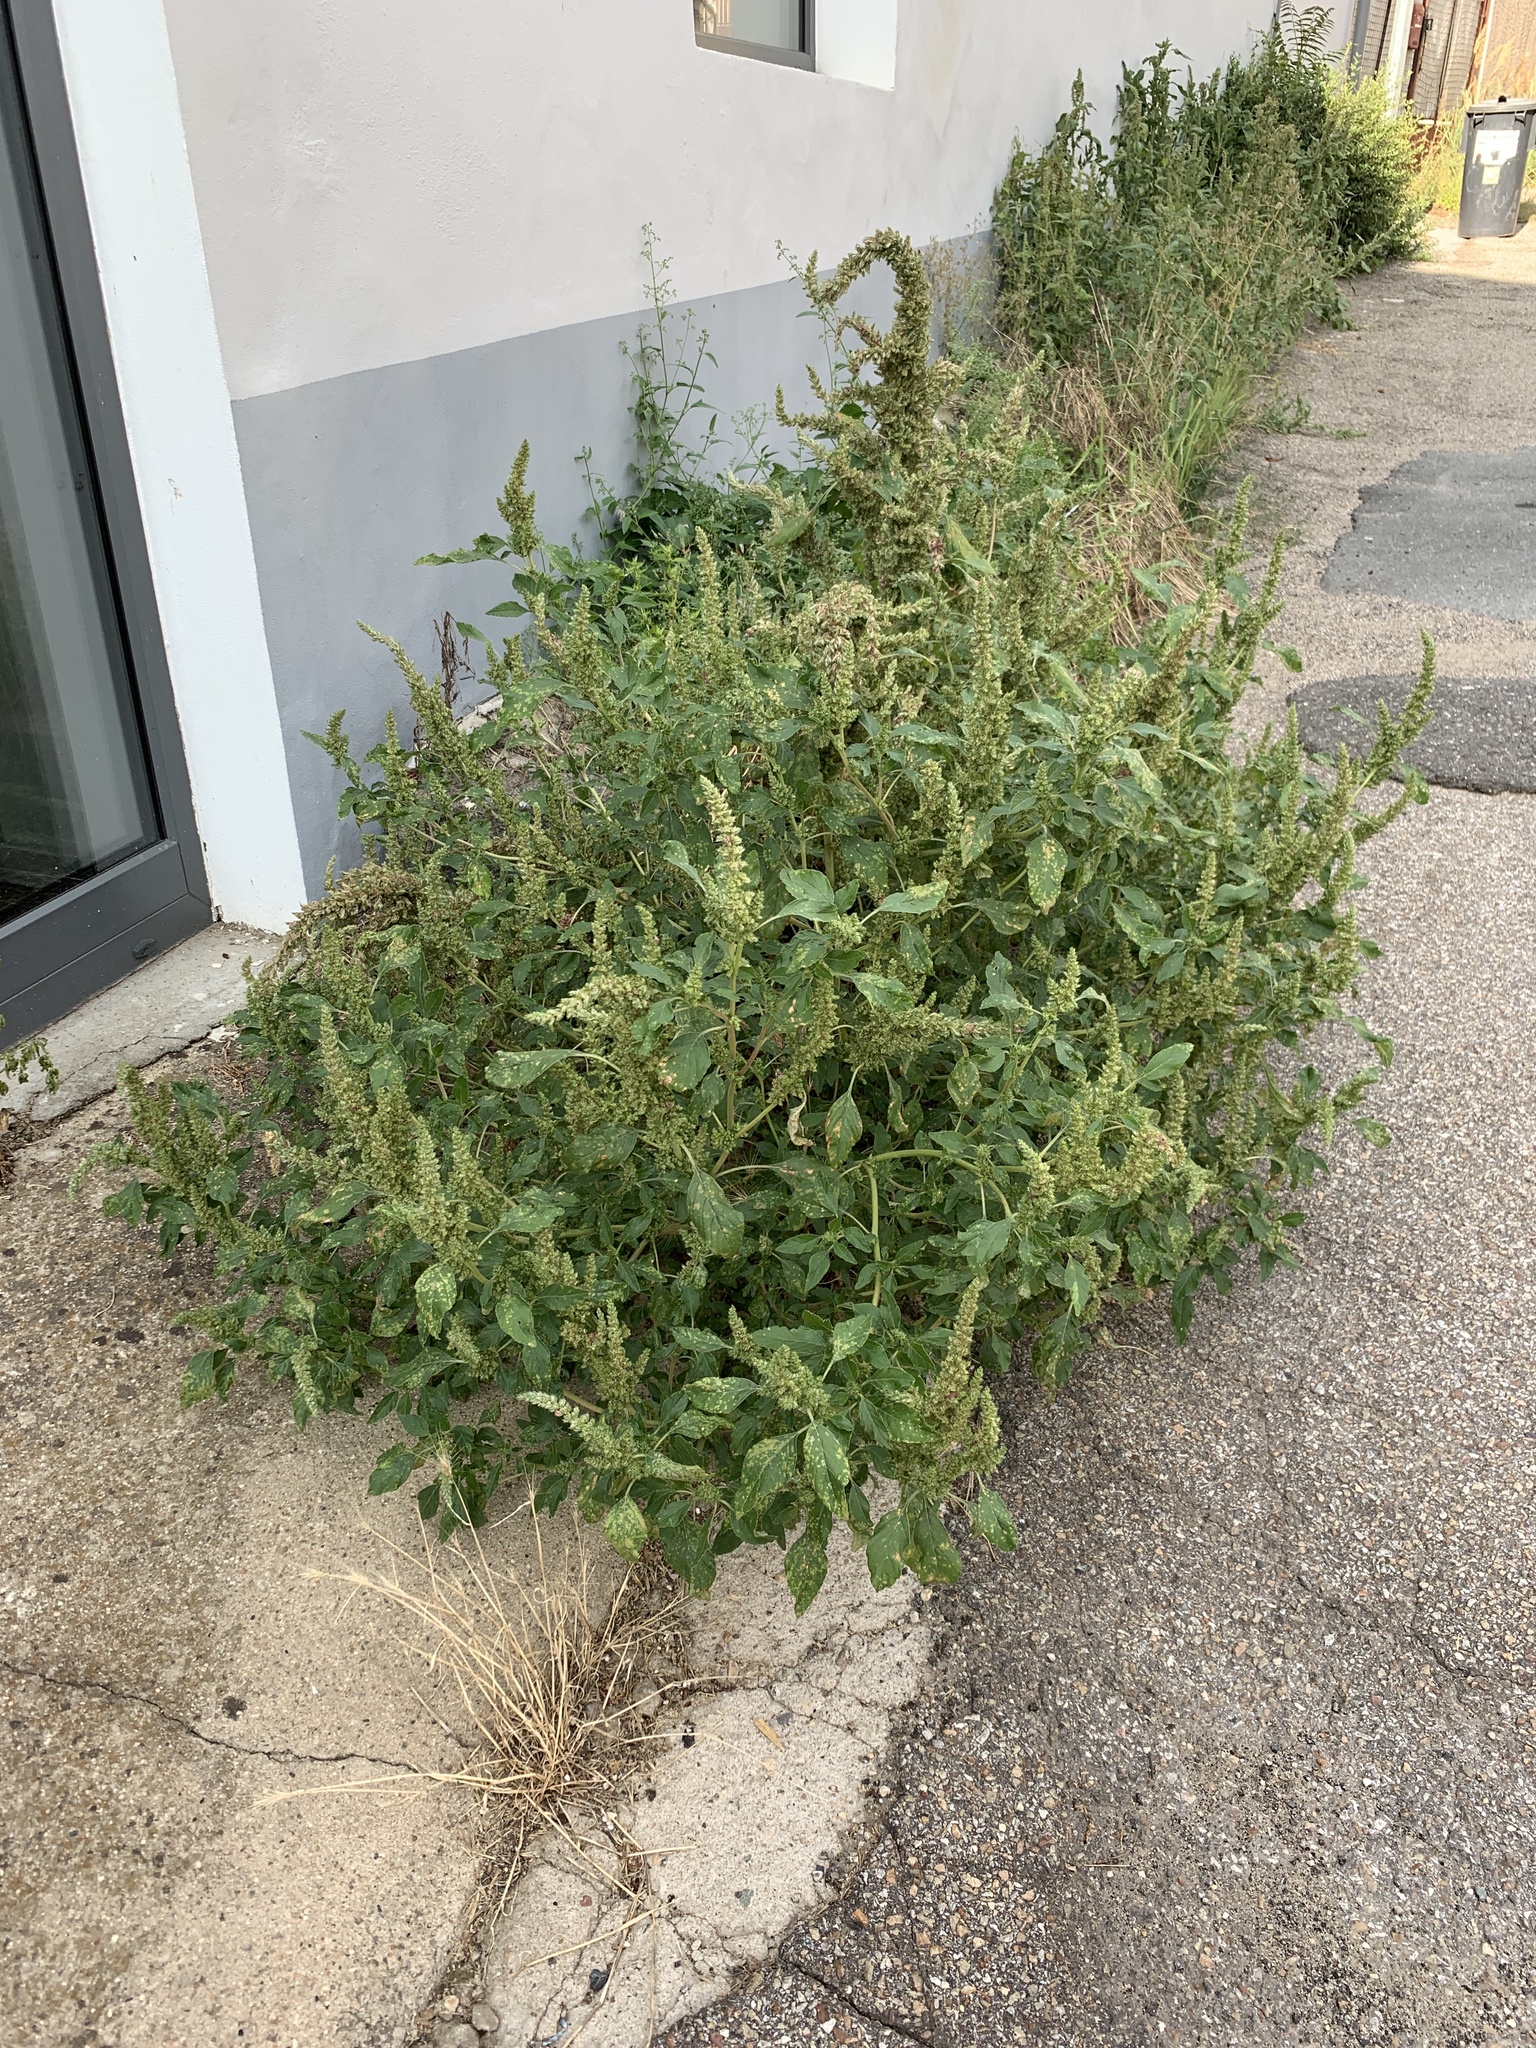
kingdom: Plantae
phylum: Tracheophyta
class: Magnoliopsida
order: Caryophyllales
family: Amaranthaceae
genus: Amaranthus
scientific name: Amaranthus retroflexus
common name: Redroot amaranth
